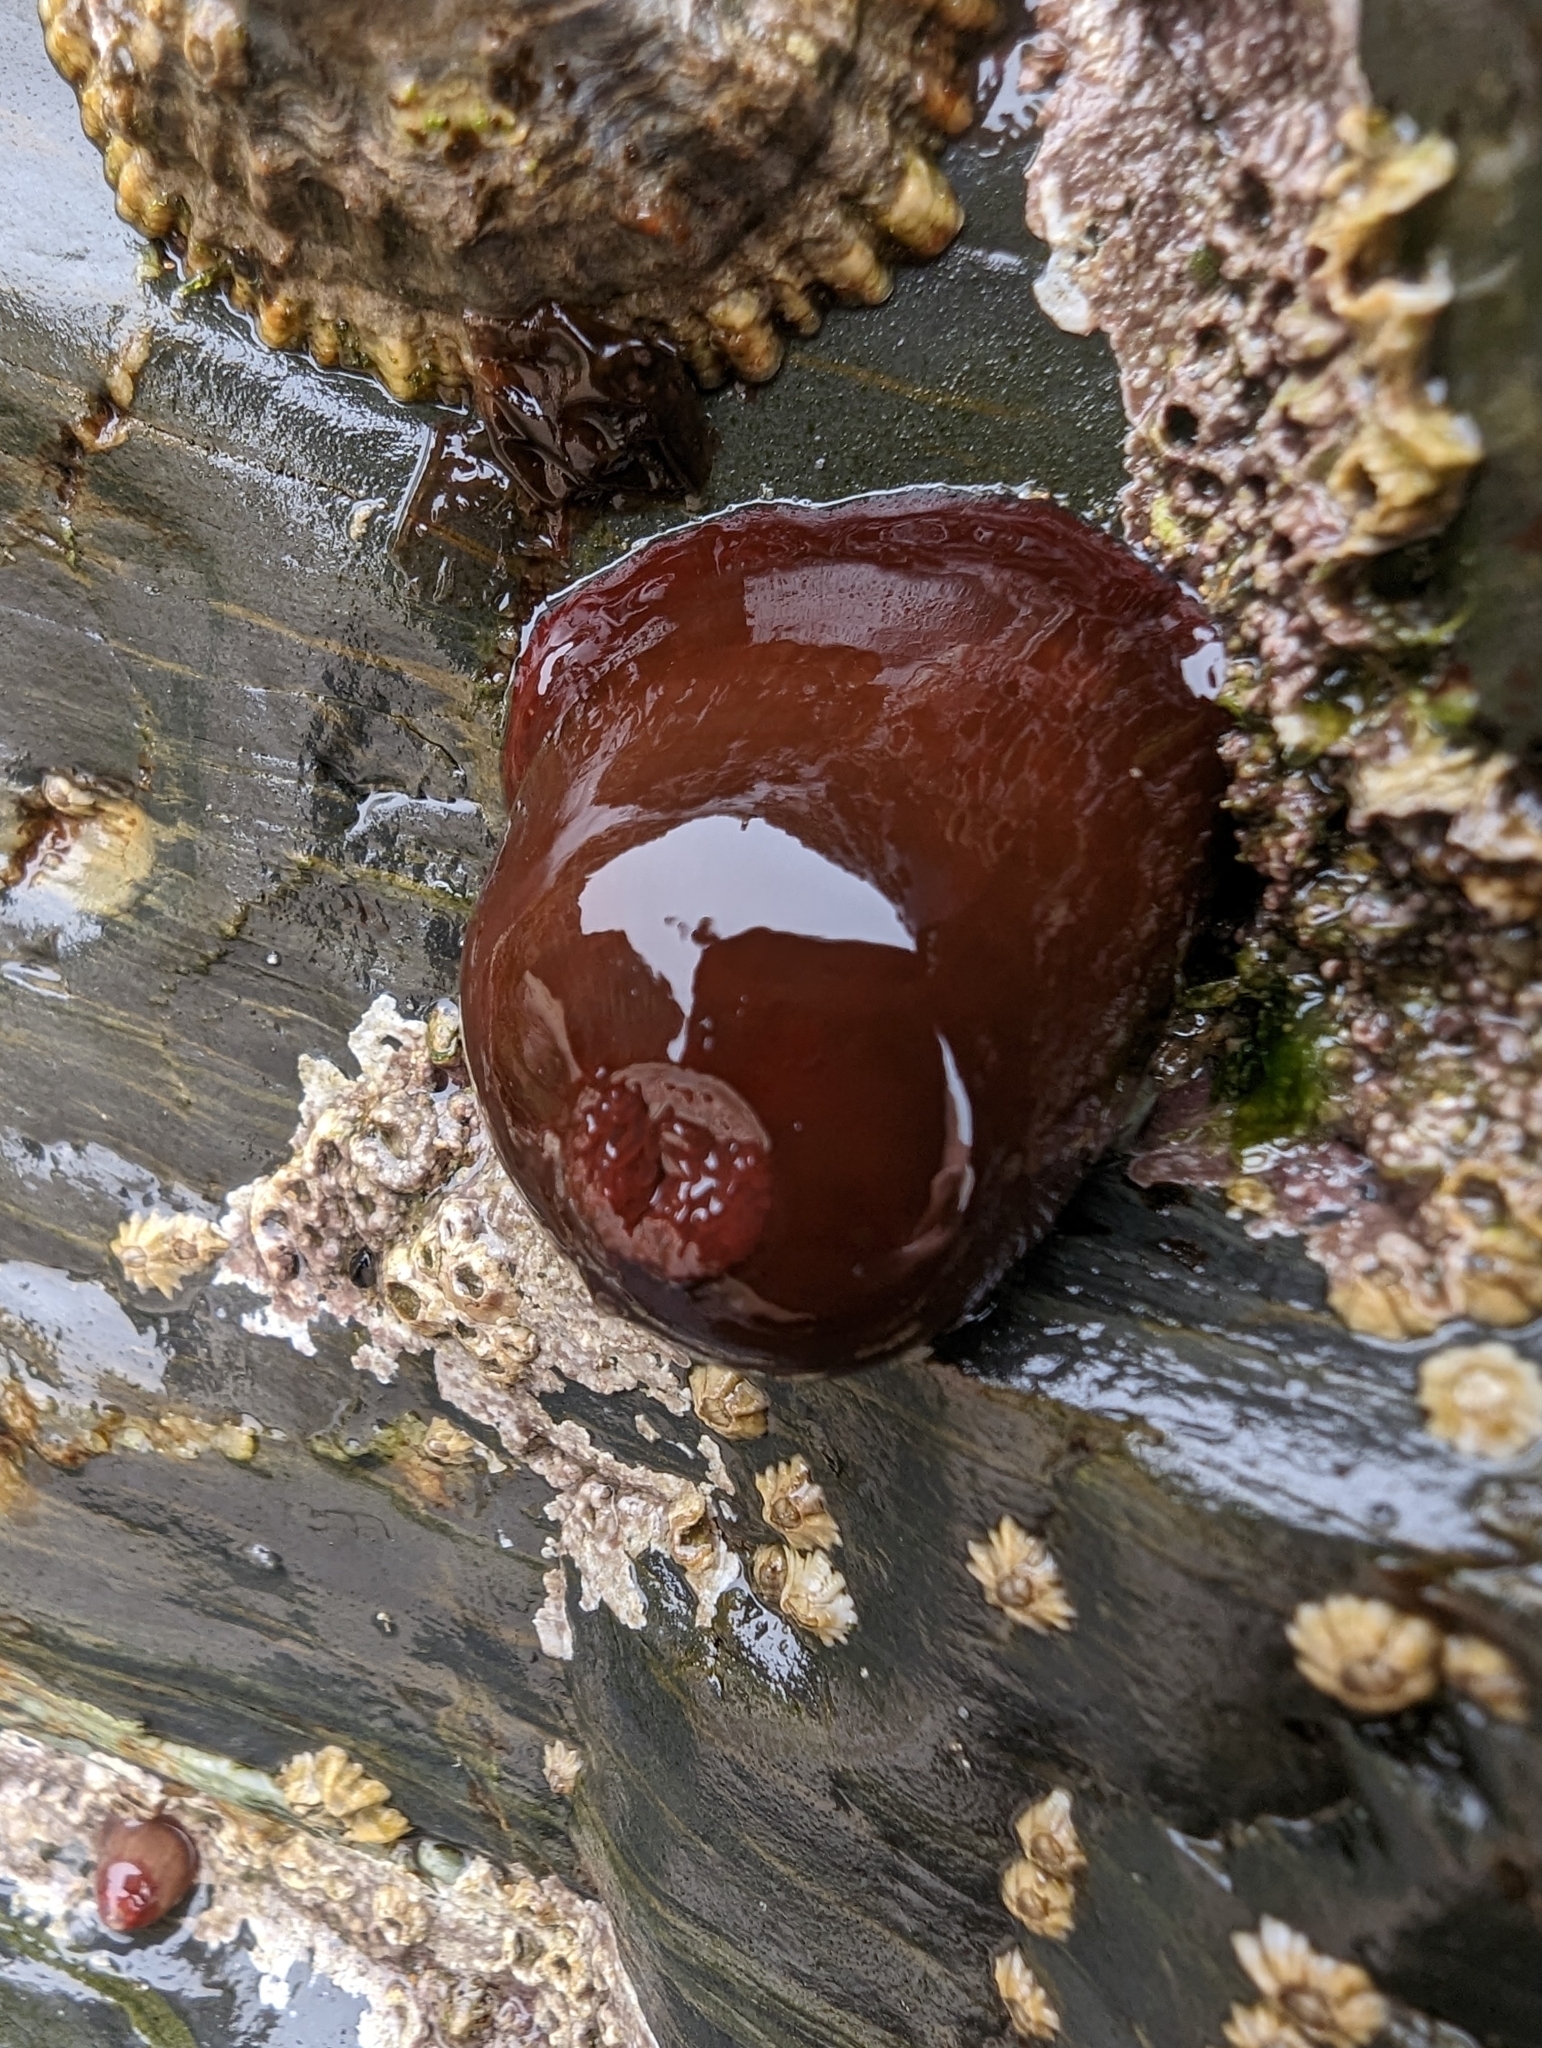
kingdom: Animalia
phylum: Cnidaria
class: Anthozoa
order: Actiniaria
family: Actiniidae
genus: Actinia
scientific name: Actinia equina
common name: Beadlet anemone
